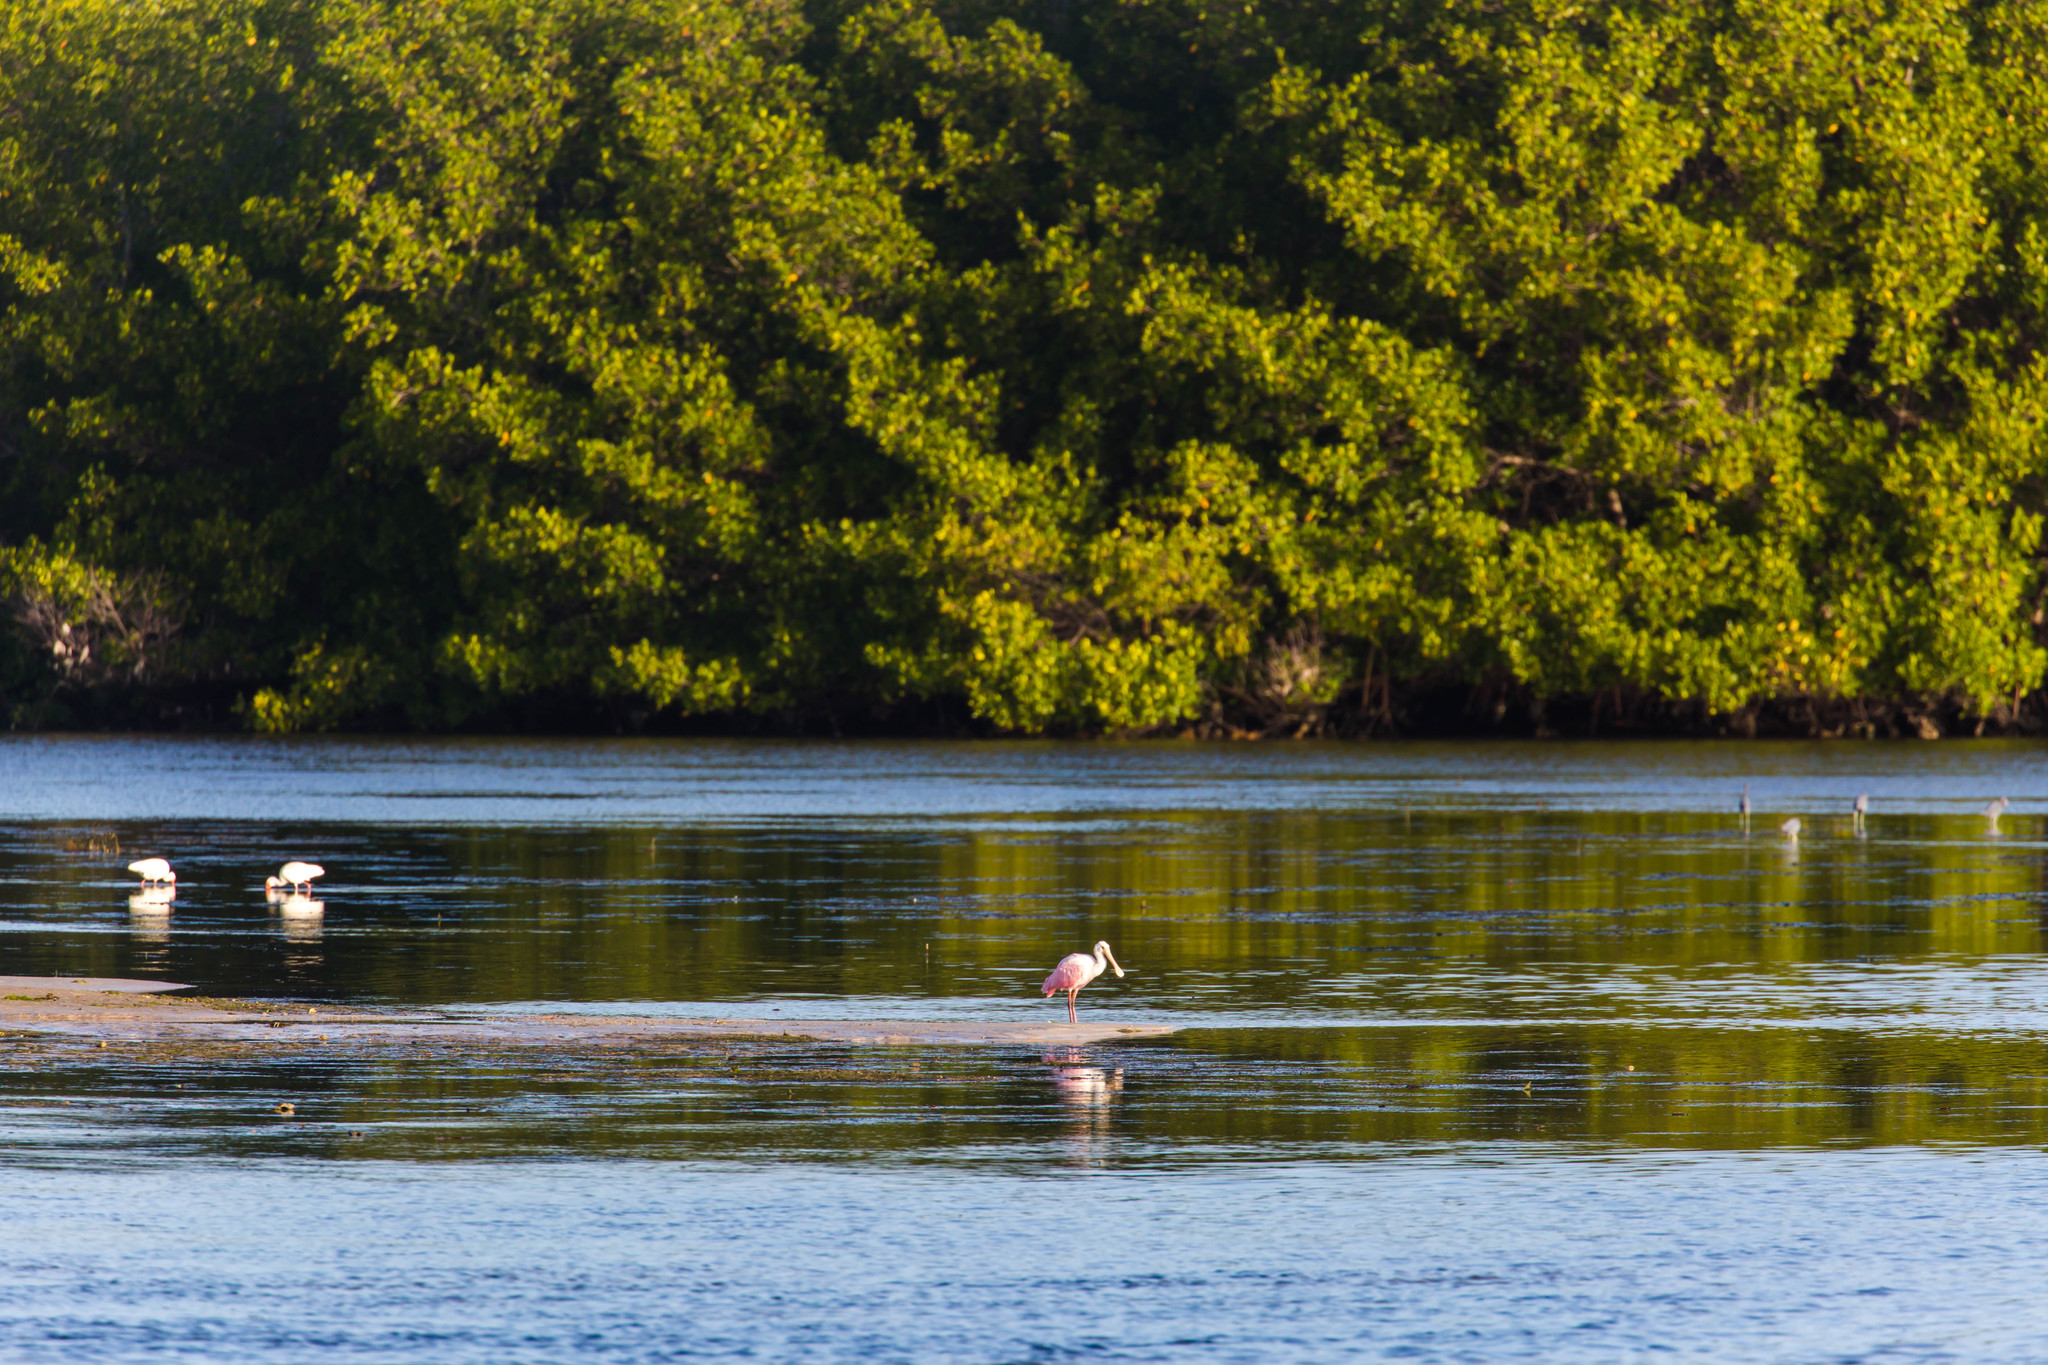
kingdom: Animalia
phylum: Chordata
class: Aves
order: Pelecaniformes
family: Threskiornithidae
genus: Platalea
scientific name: Platalea ajaja
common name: Roseate spoonbill
